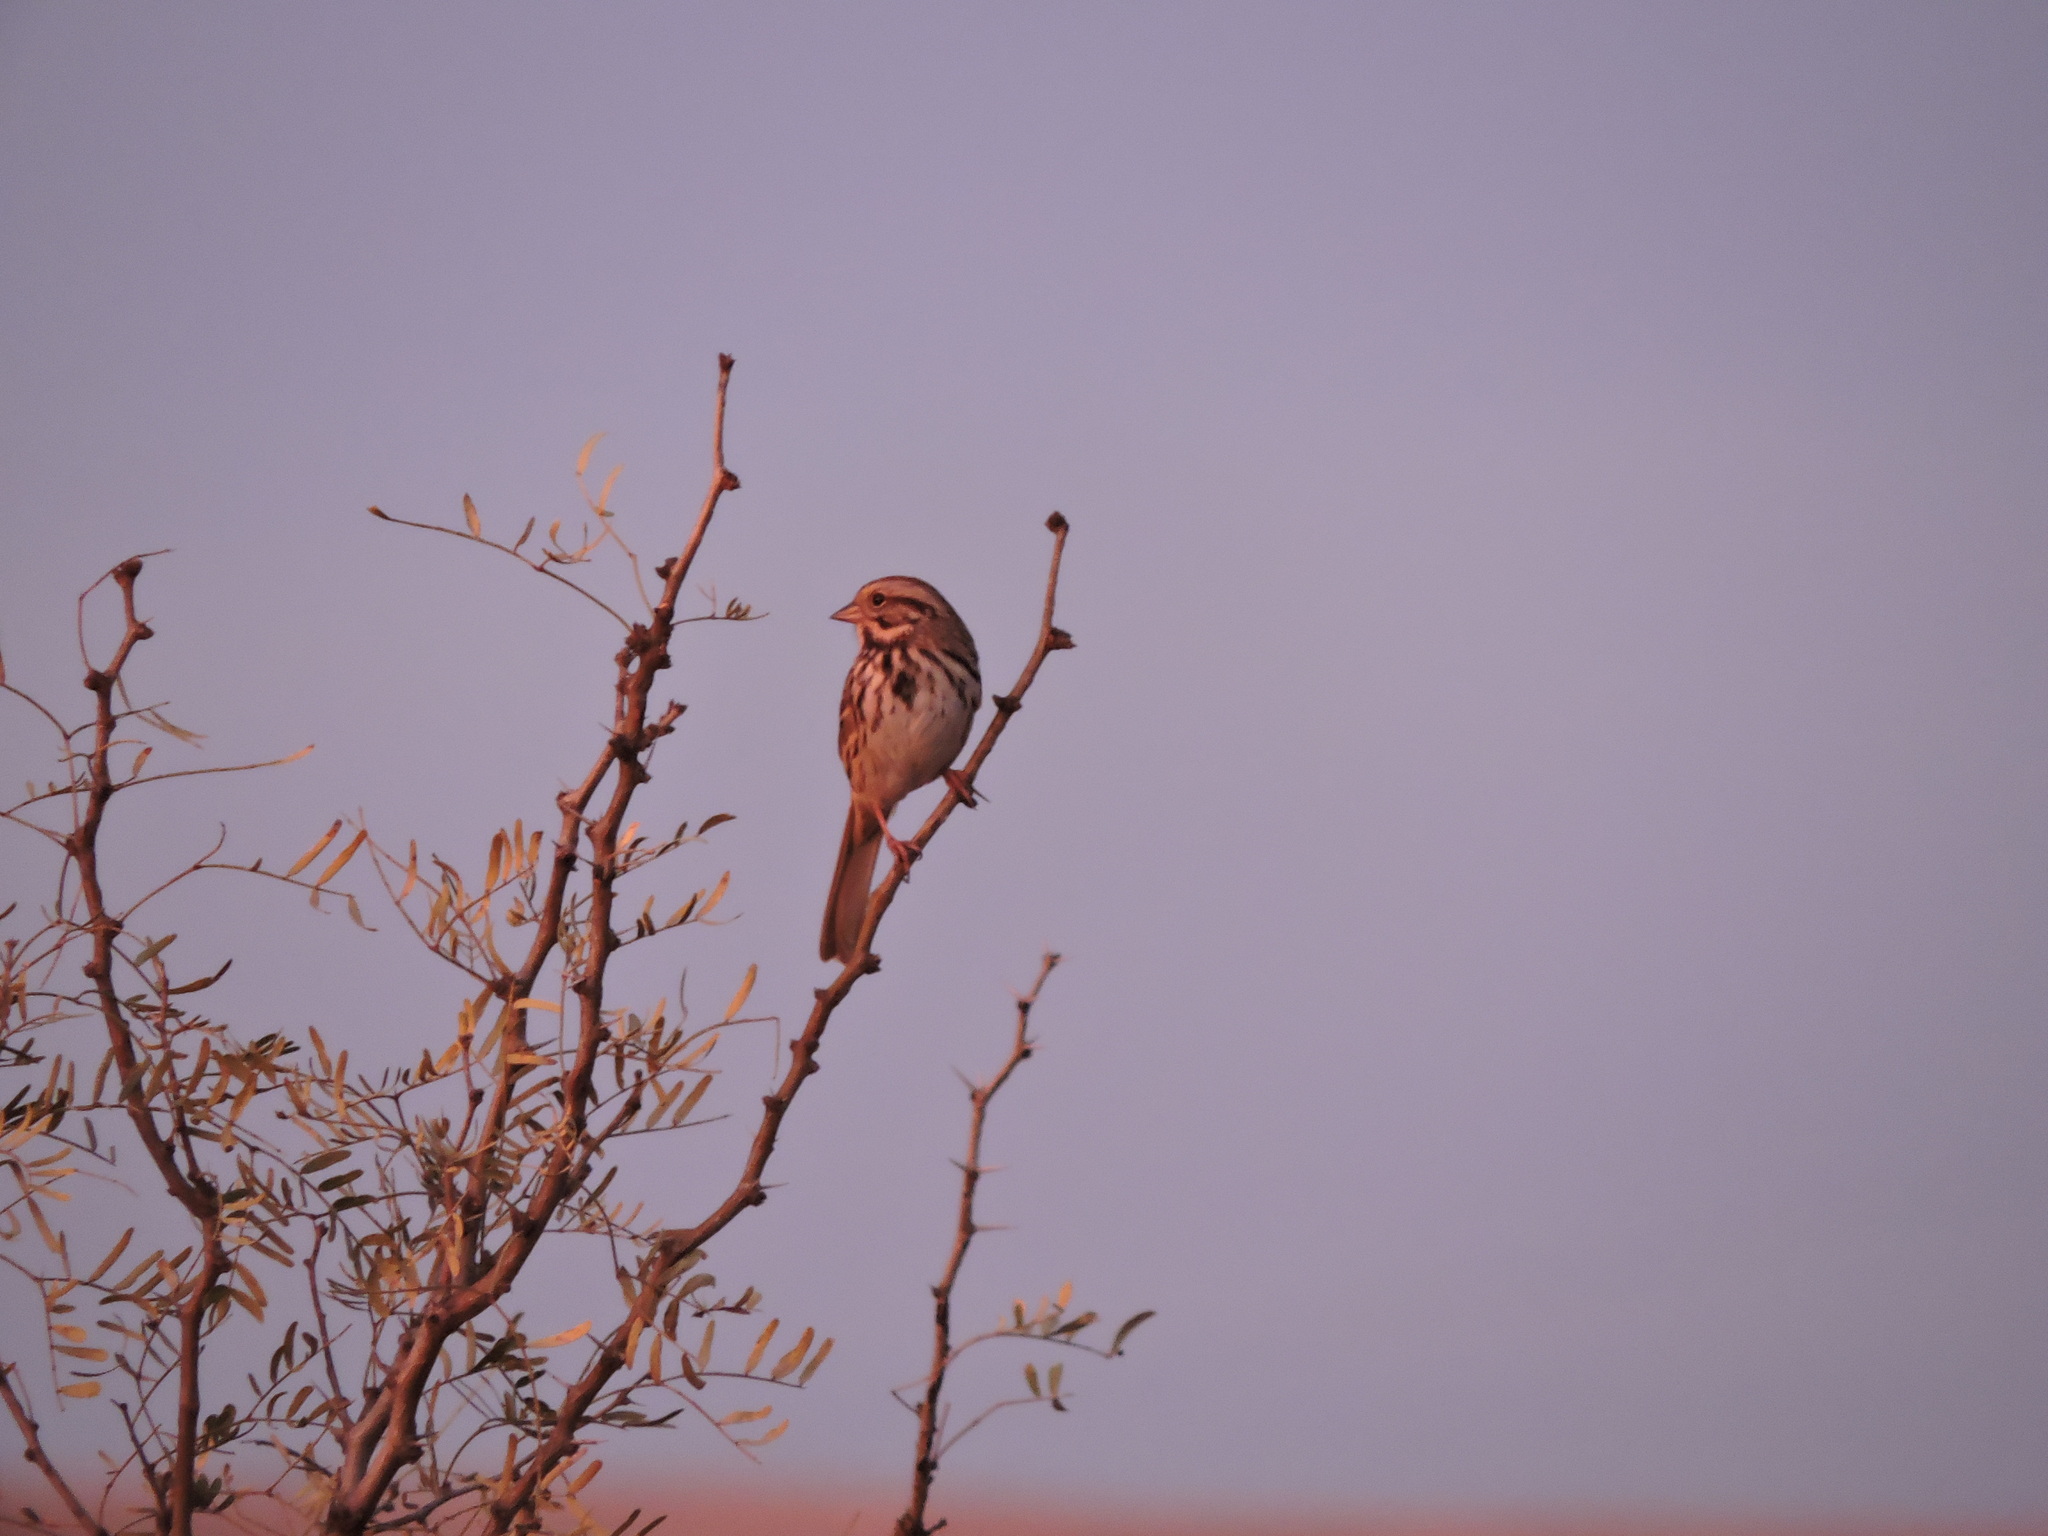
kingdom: Animalia
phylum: Chordata
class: Aves
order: Passeriformes
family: Passerellidae
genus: Melospiza
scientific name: Melospiza melodia
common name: Song sparrow
